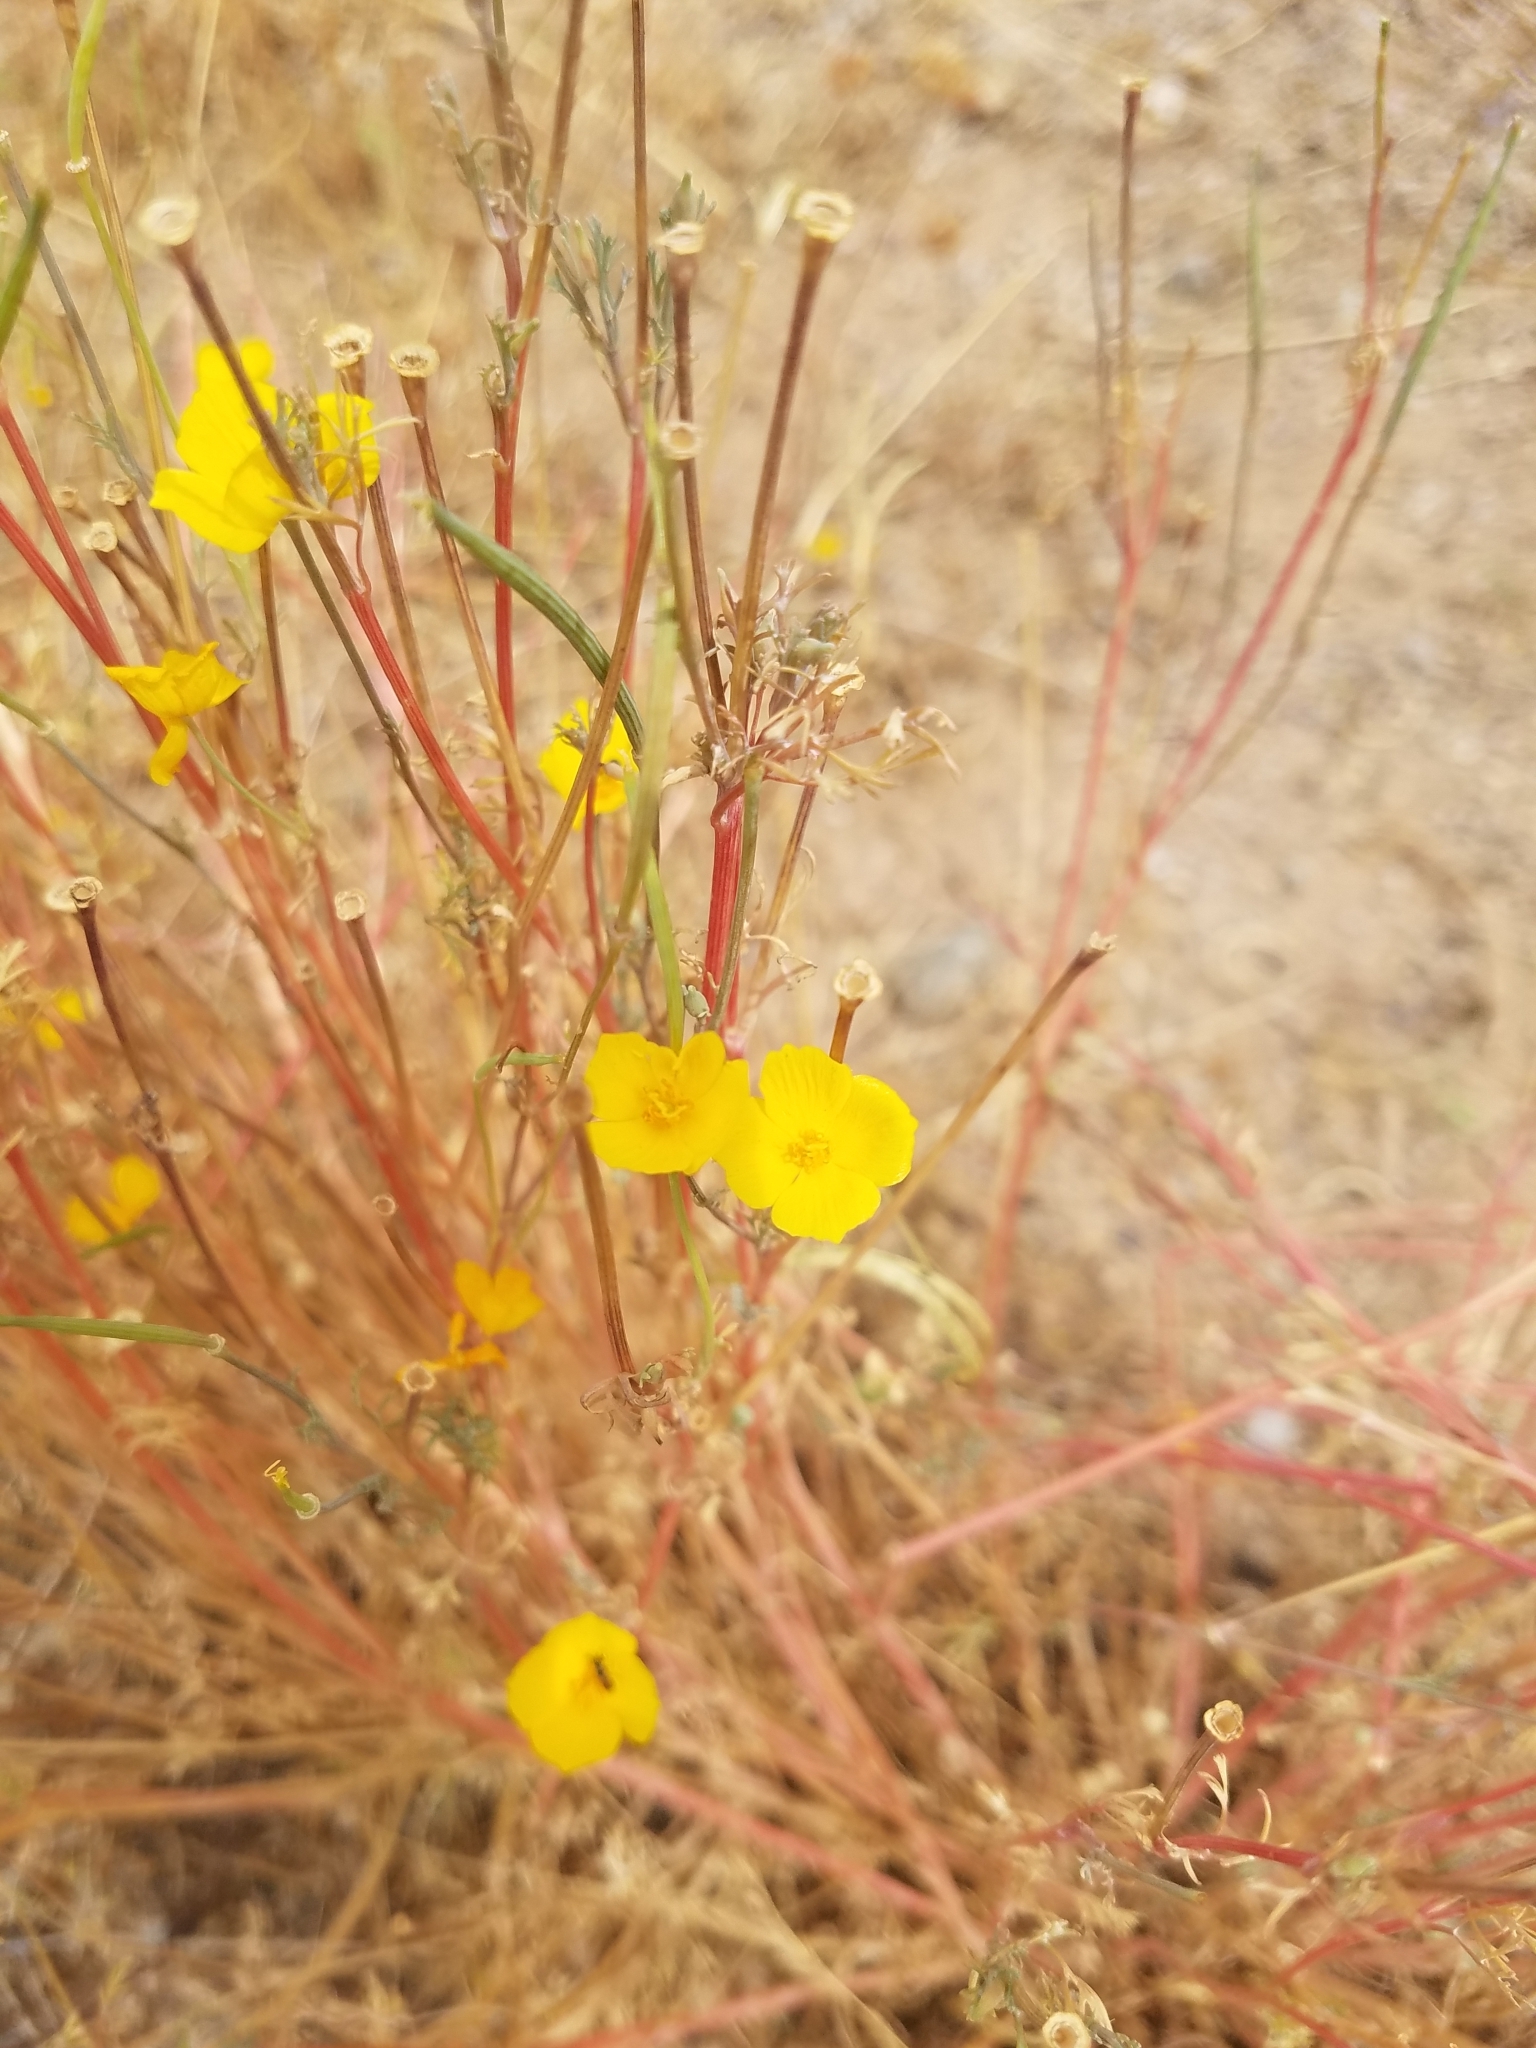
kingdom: Plantae
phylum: Tracheophyta
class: Magnoliopsida
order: Ranunculales
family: Papaveraceae
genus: Eschscholzia
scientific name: Eschscholzia californica
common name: California poppy
